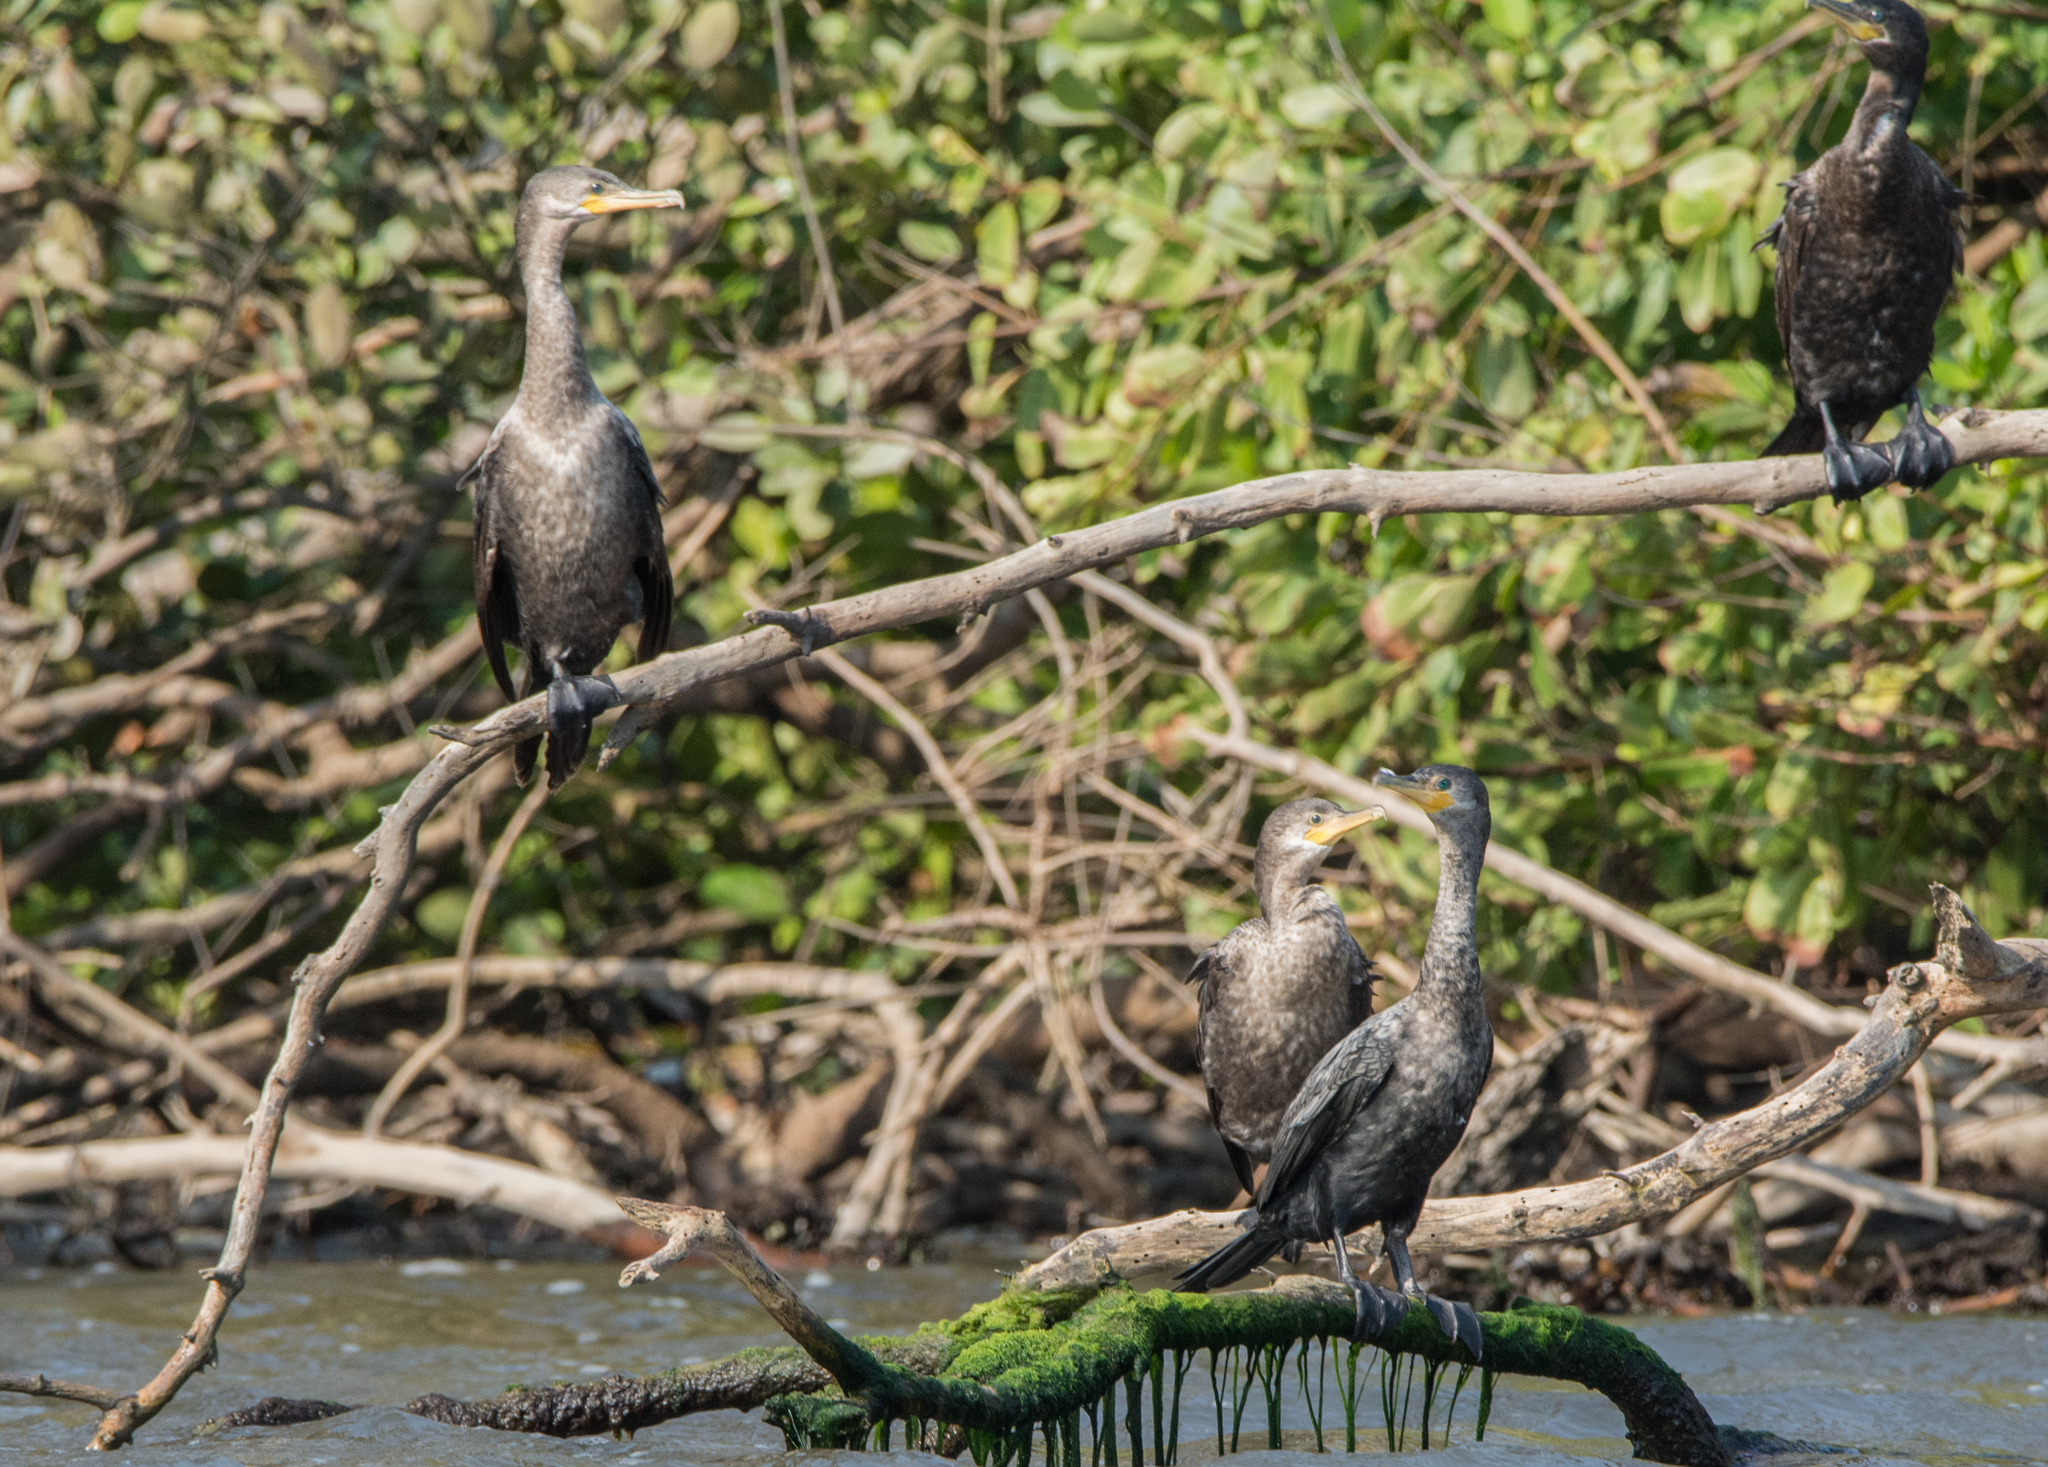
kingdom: Animalia
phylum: Chordata
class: Aves
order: Suliformes
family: Phalacrocoracidae
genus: Phalacrocorax
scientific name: Phalacrocorax brasilianus
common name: Neotropic cormorant
